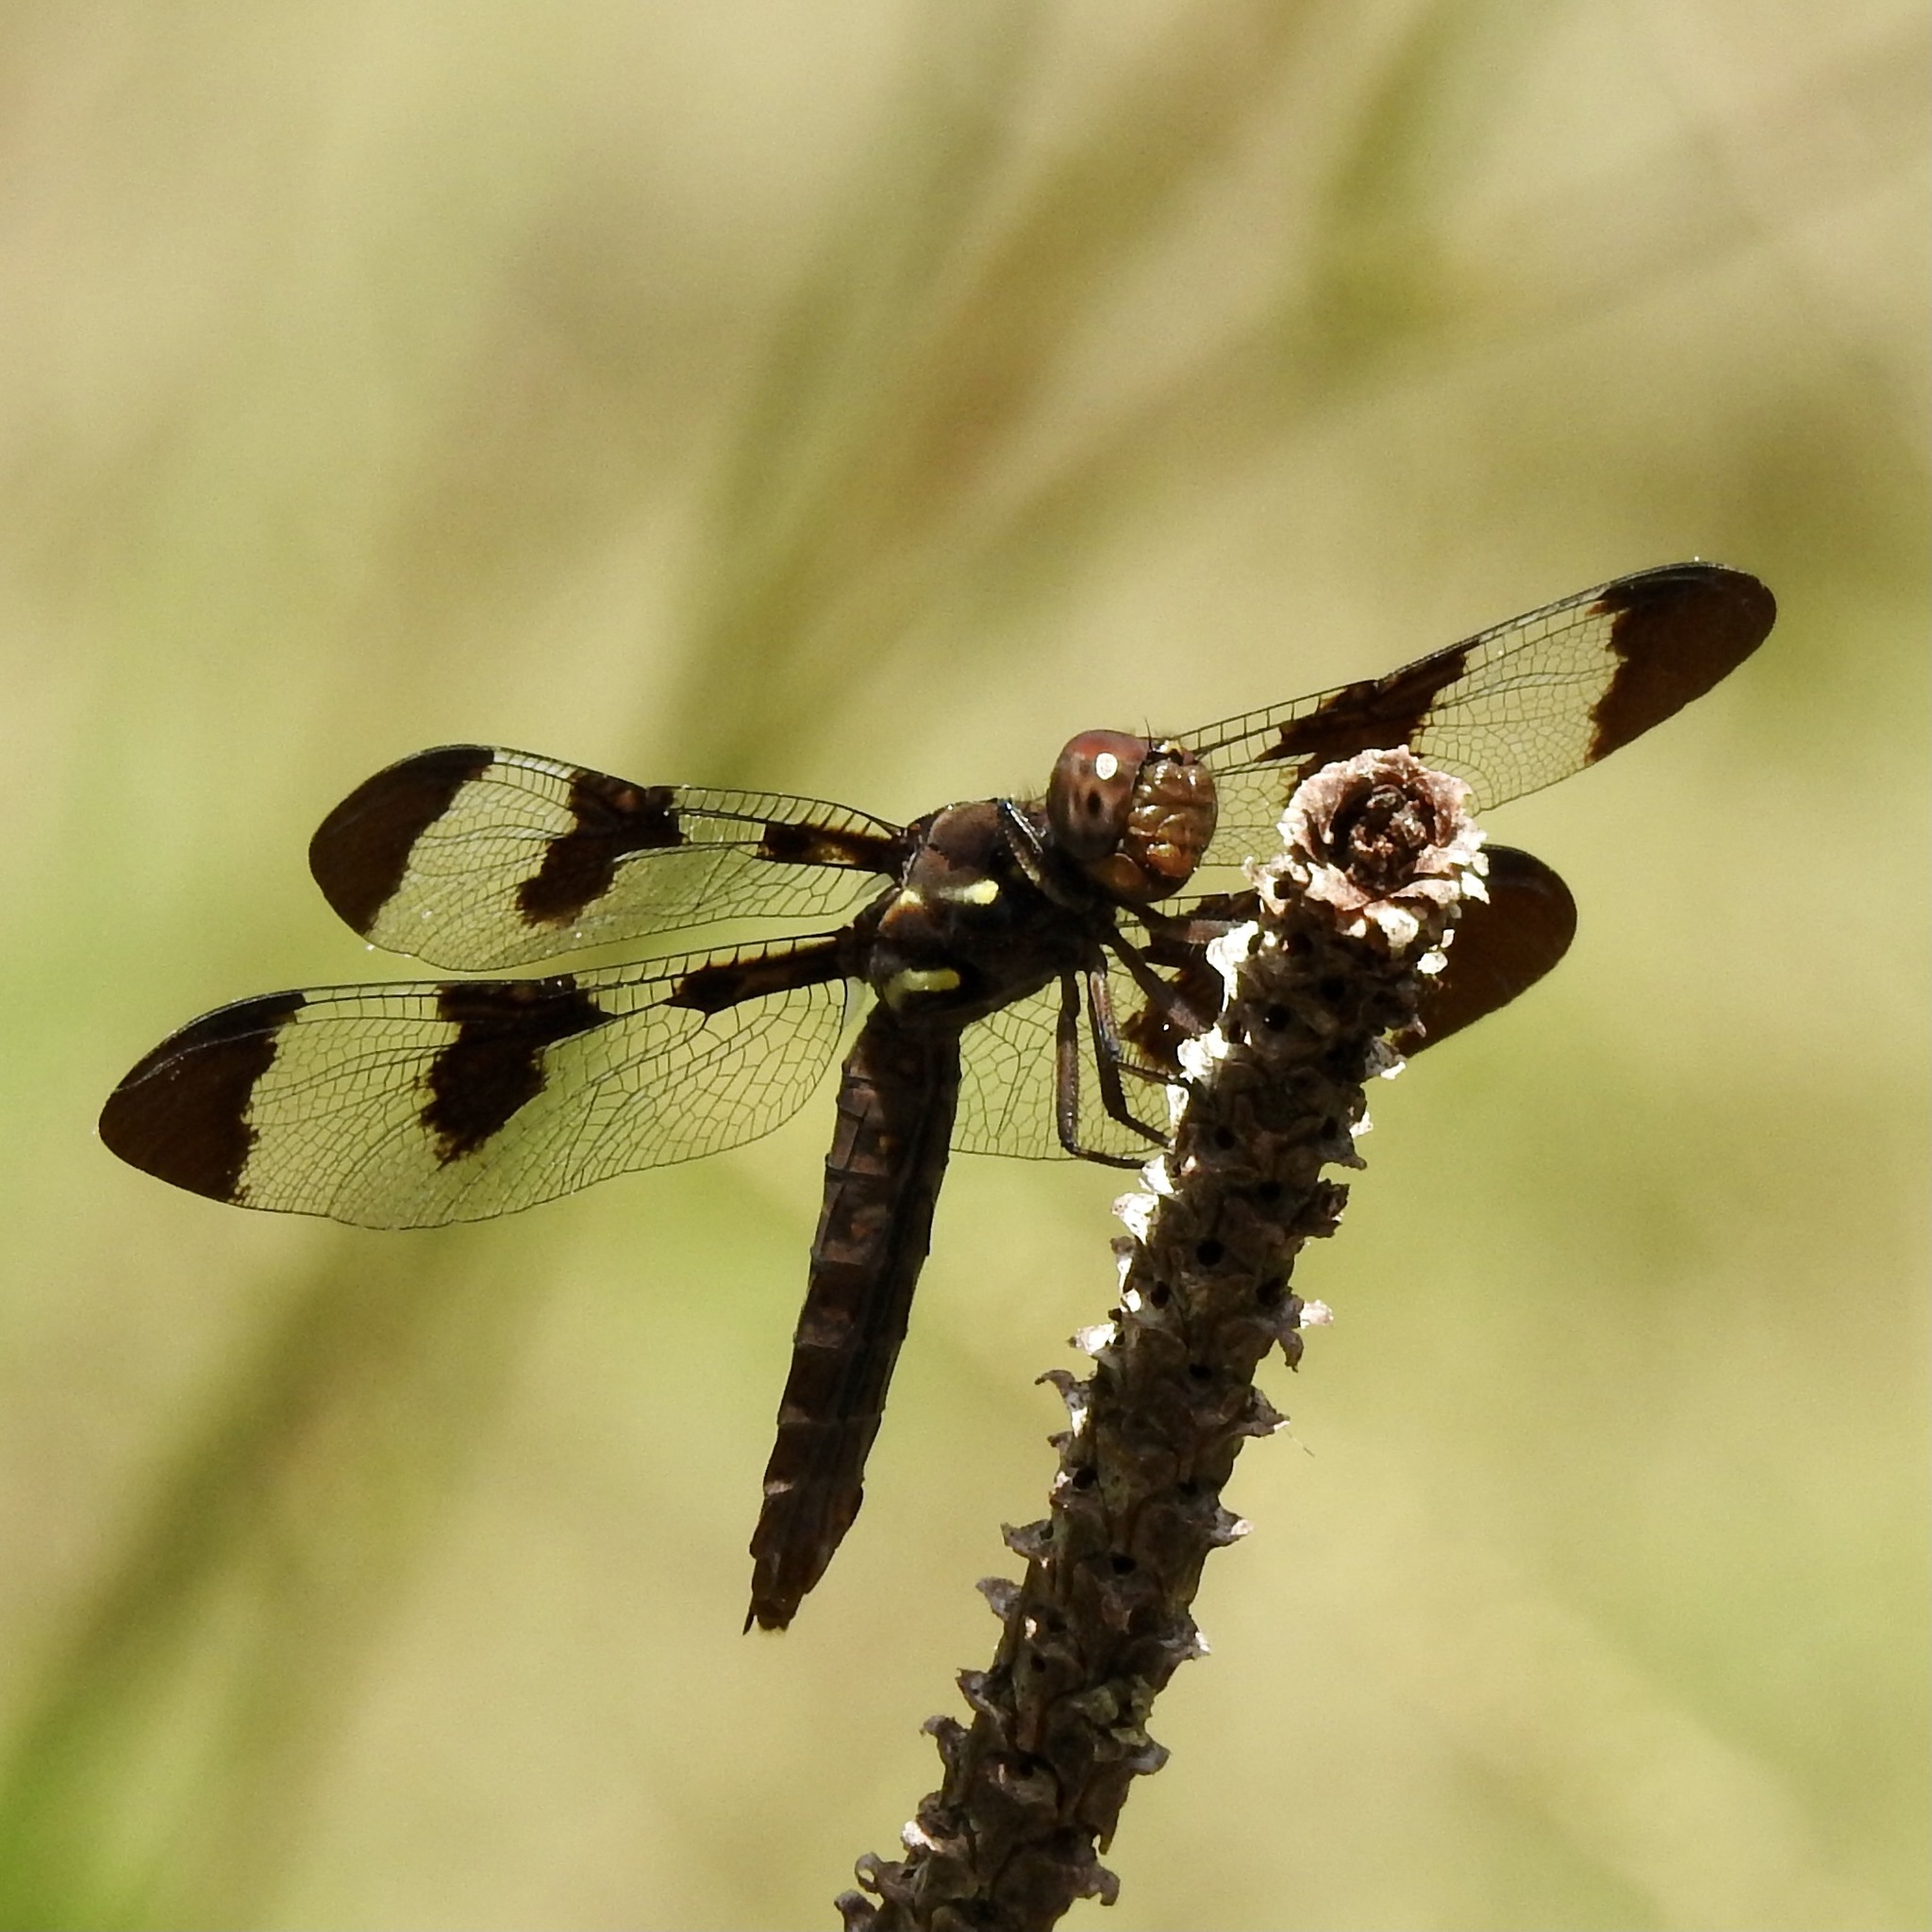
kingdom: Animalia
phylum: Arthropoda
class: Insecta
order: Odonata
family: Libellulidae
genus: Plathemis
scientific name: Plathemis lydia
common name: Common whitetail
